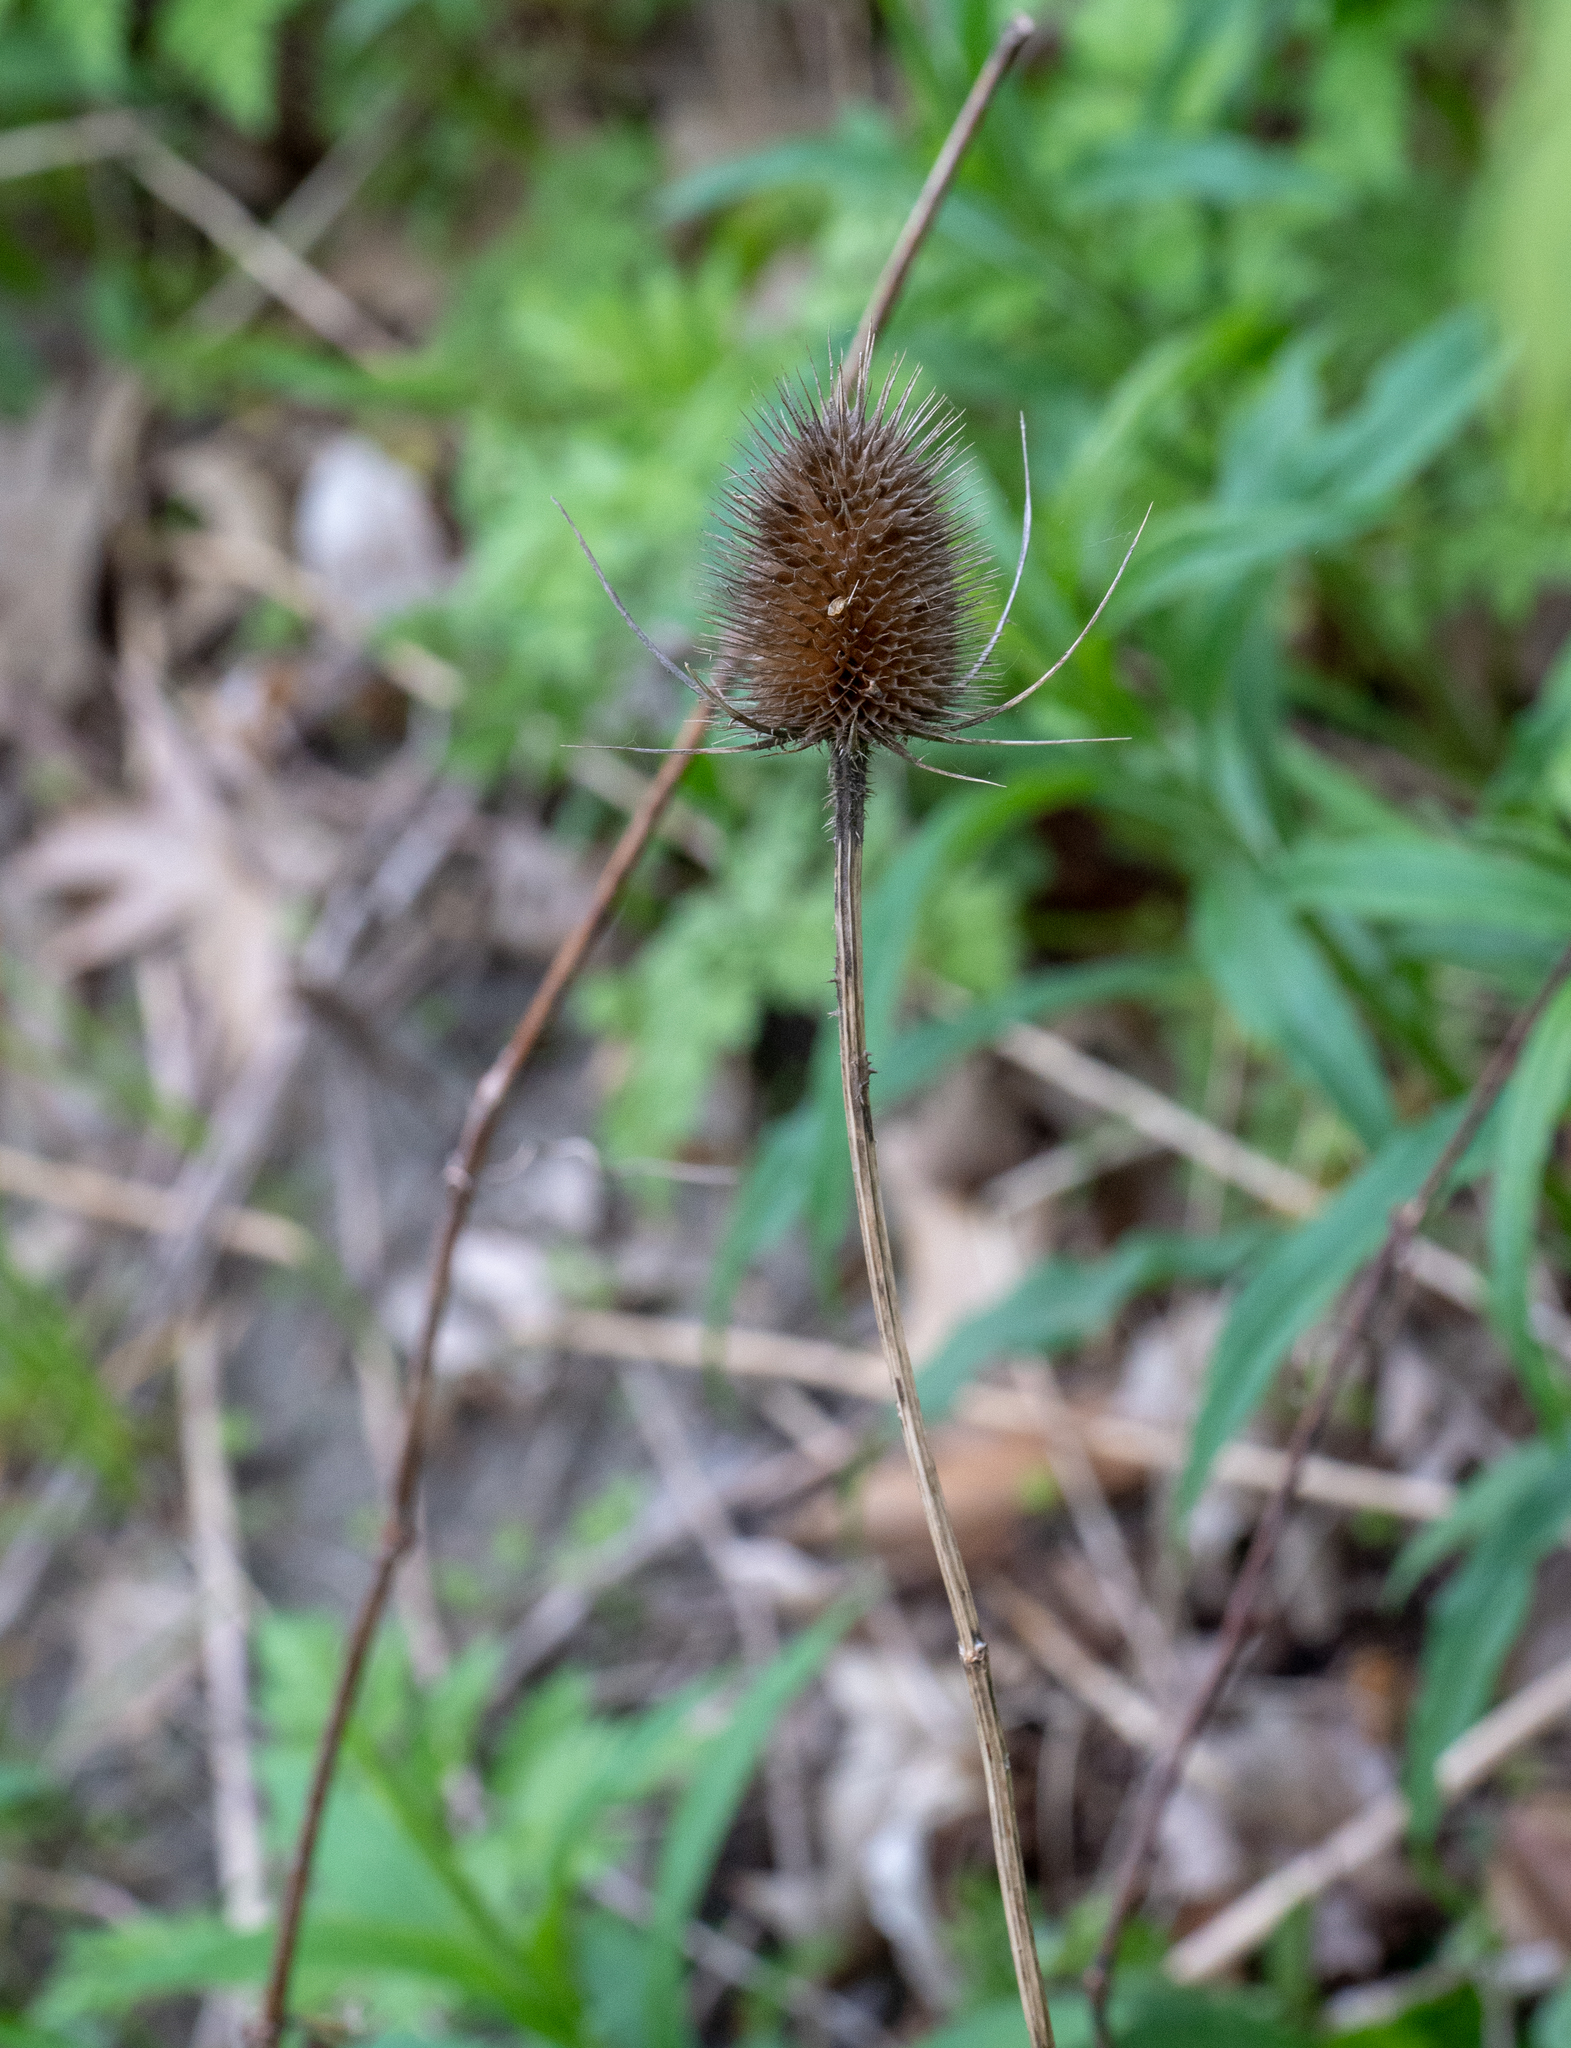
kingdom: Plantae
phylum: Tracheophyta
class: Magnoliopsida
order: Dipsacales
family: Caprifoliaceae
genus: Dipsacus
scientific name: Dipsacus fullonum
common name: Teasel
